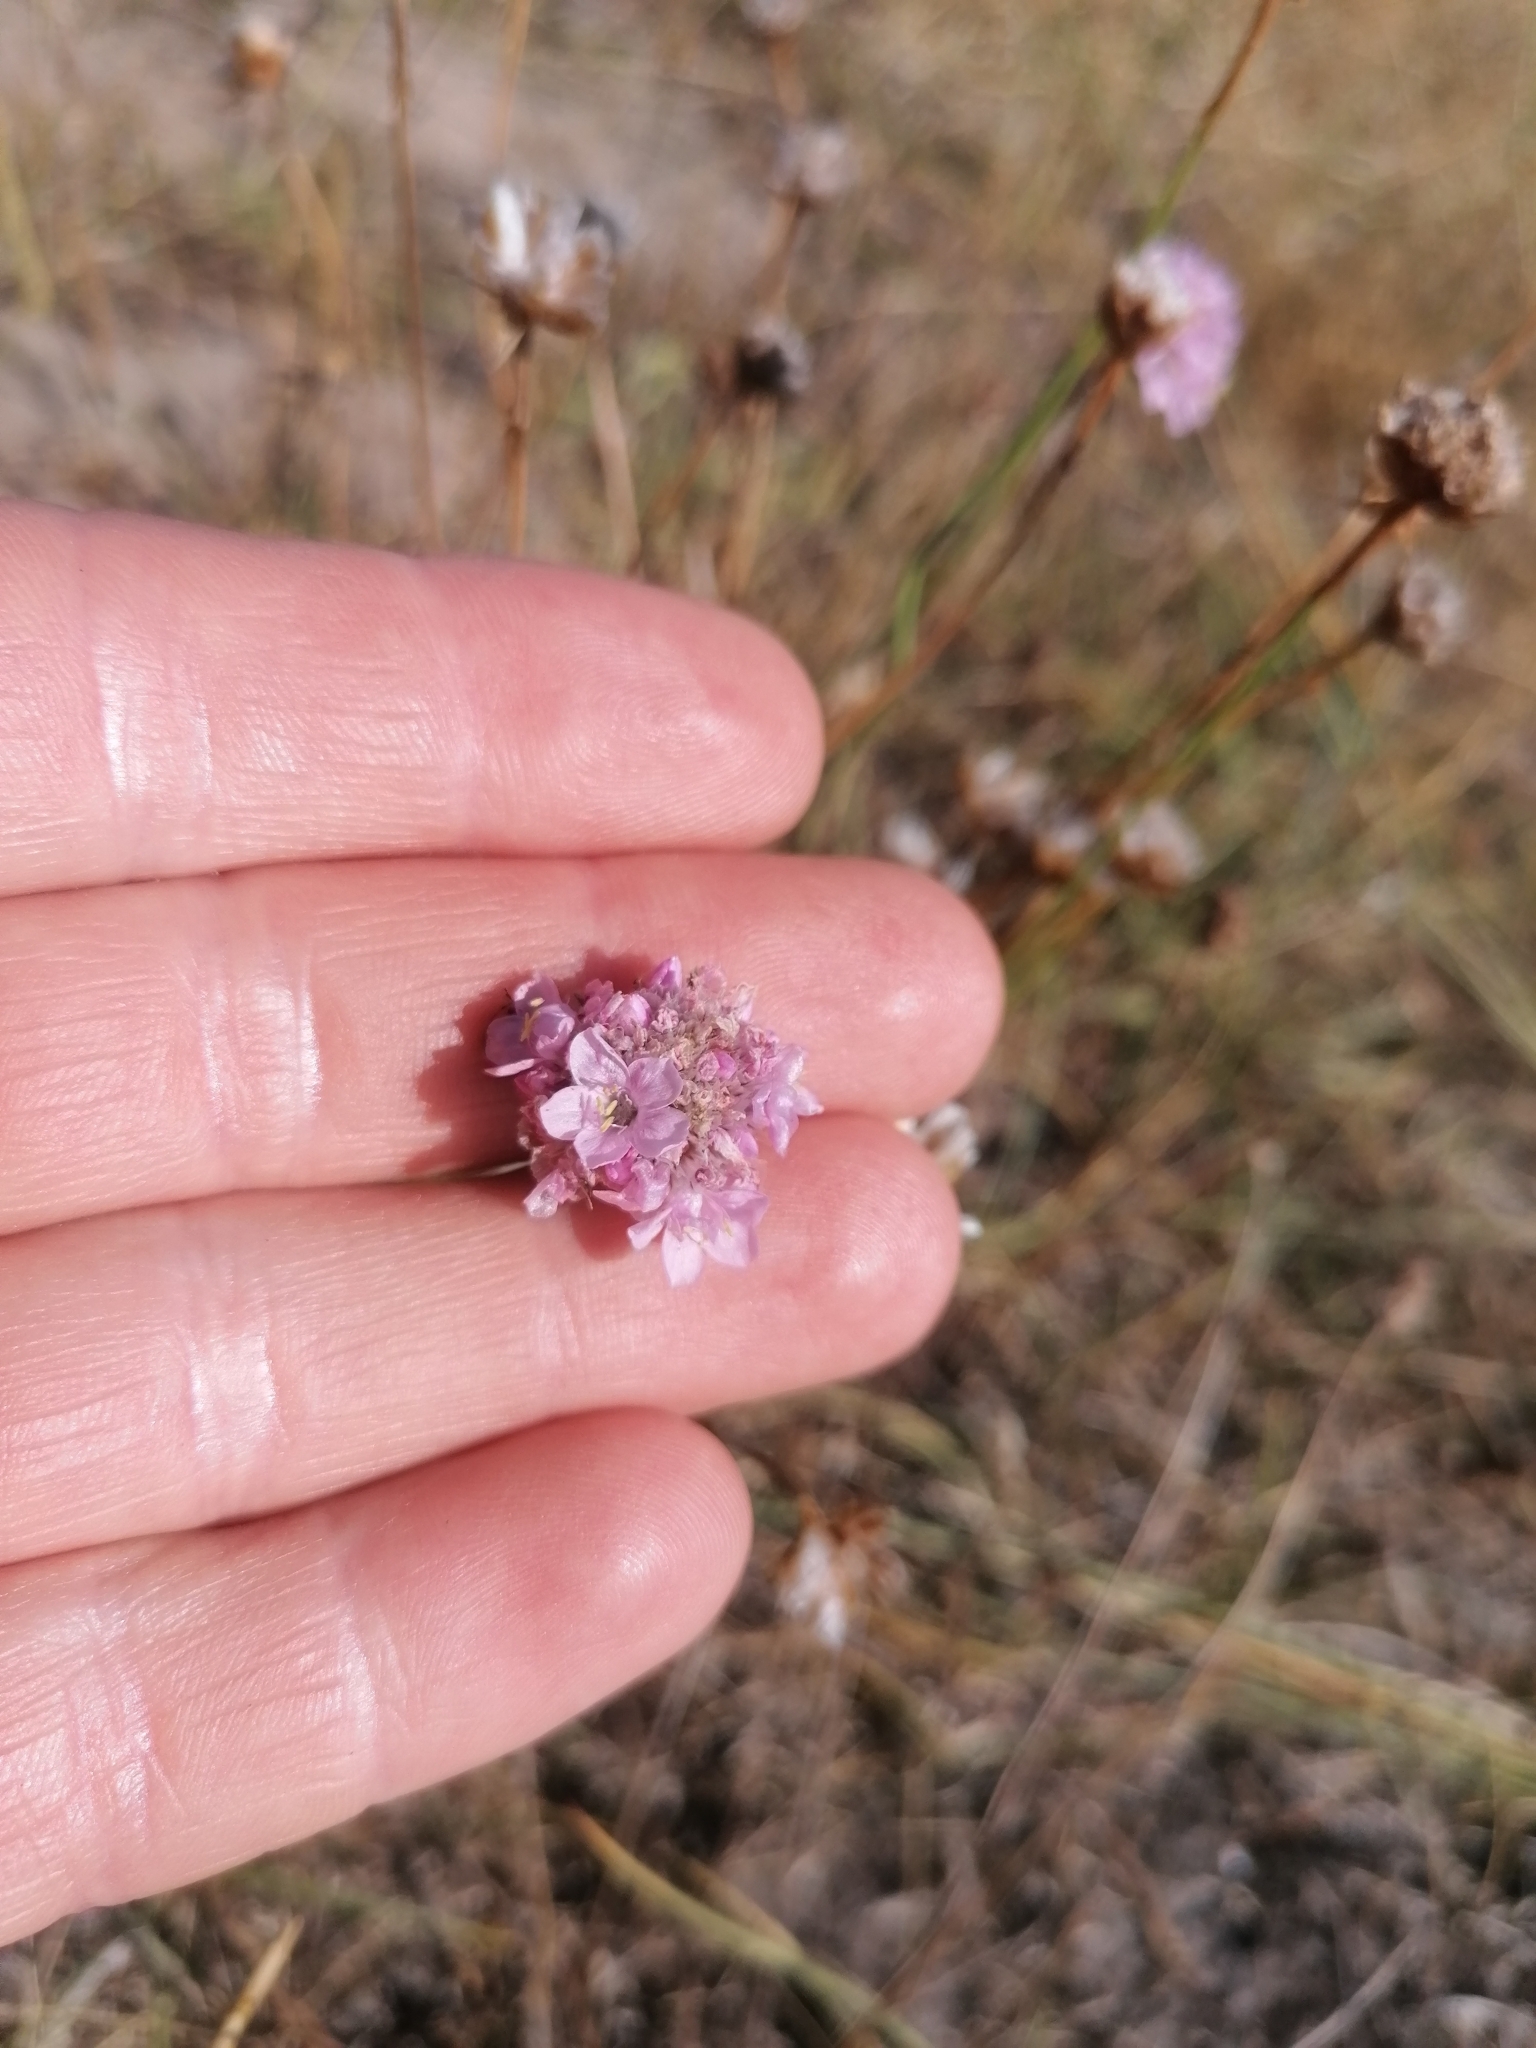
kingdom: Plantae
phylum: Tracheophyta
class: Magnoliopsida
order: Caryophyllales
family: Plumbaginaceae
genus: Armeria
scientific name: Armeria maritima
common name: Thrift
